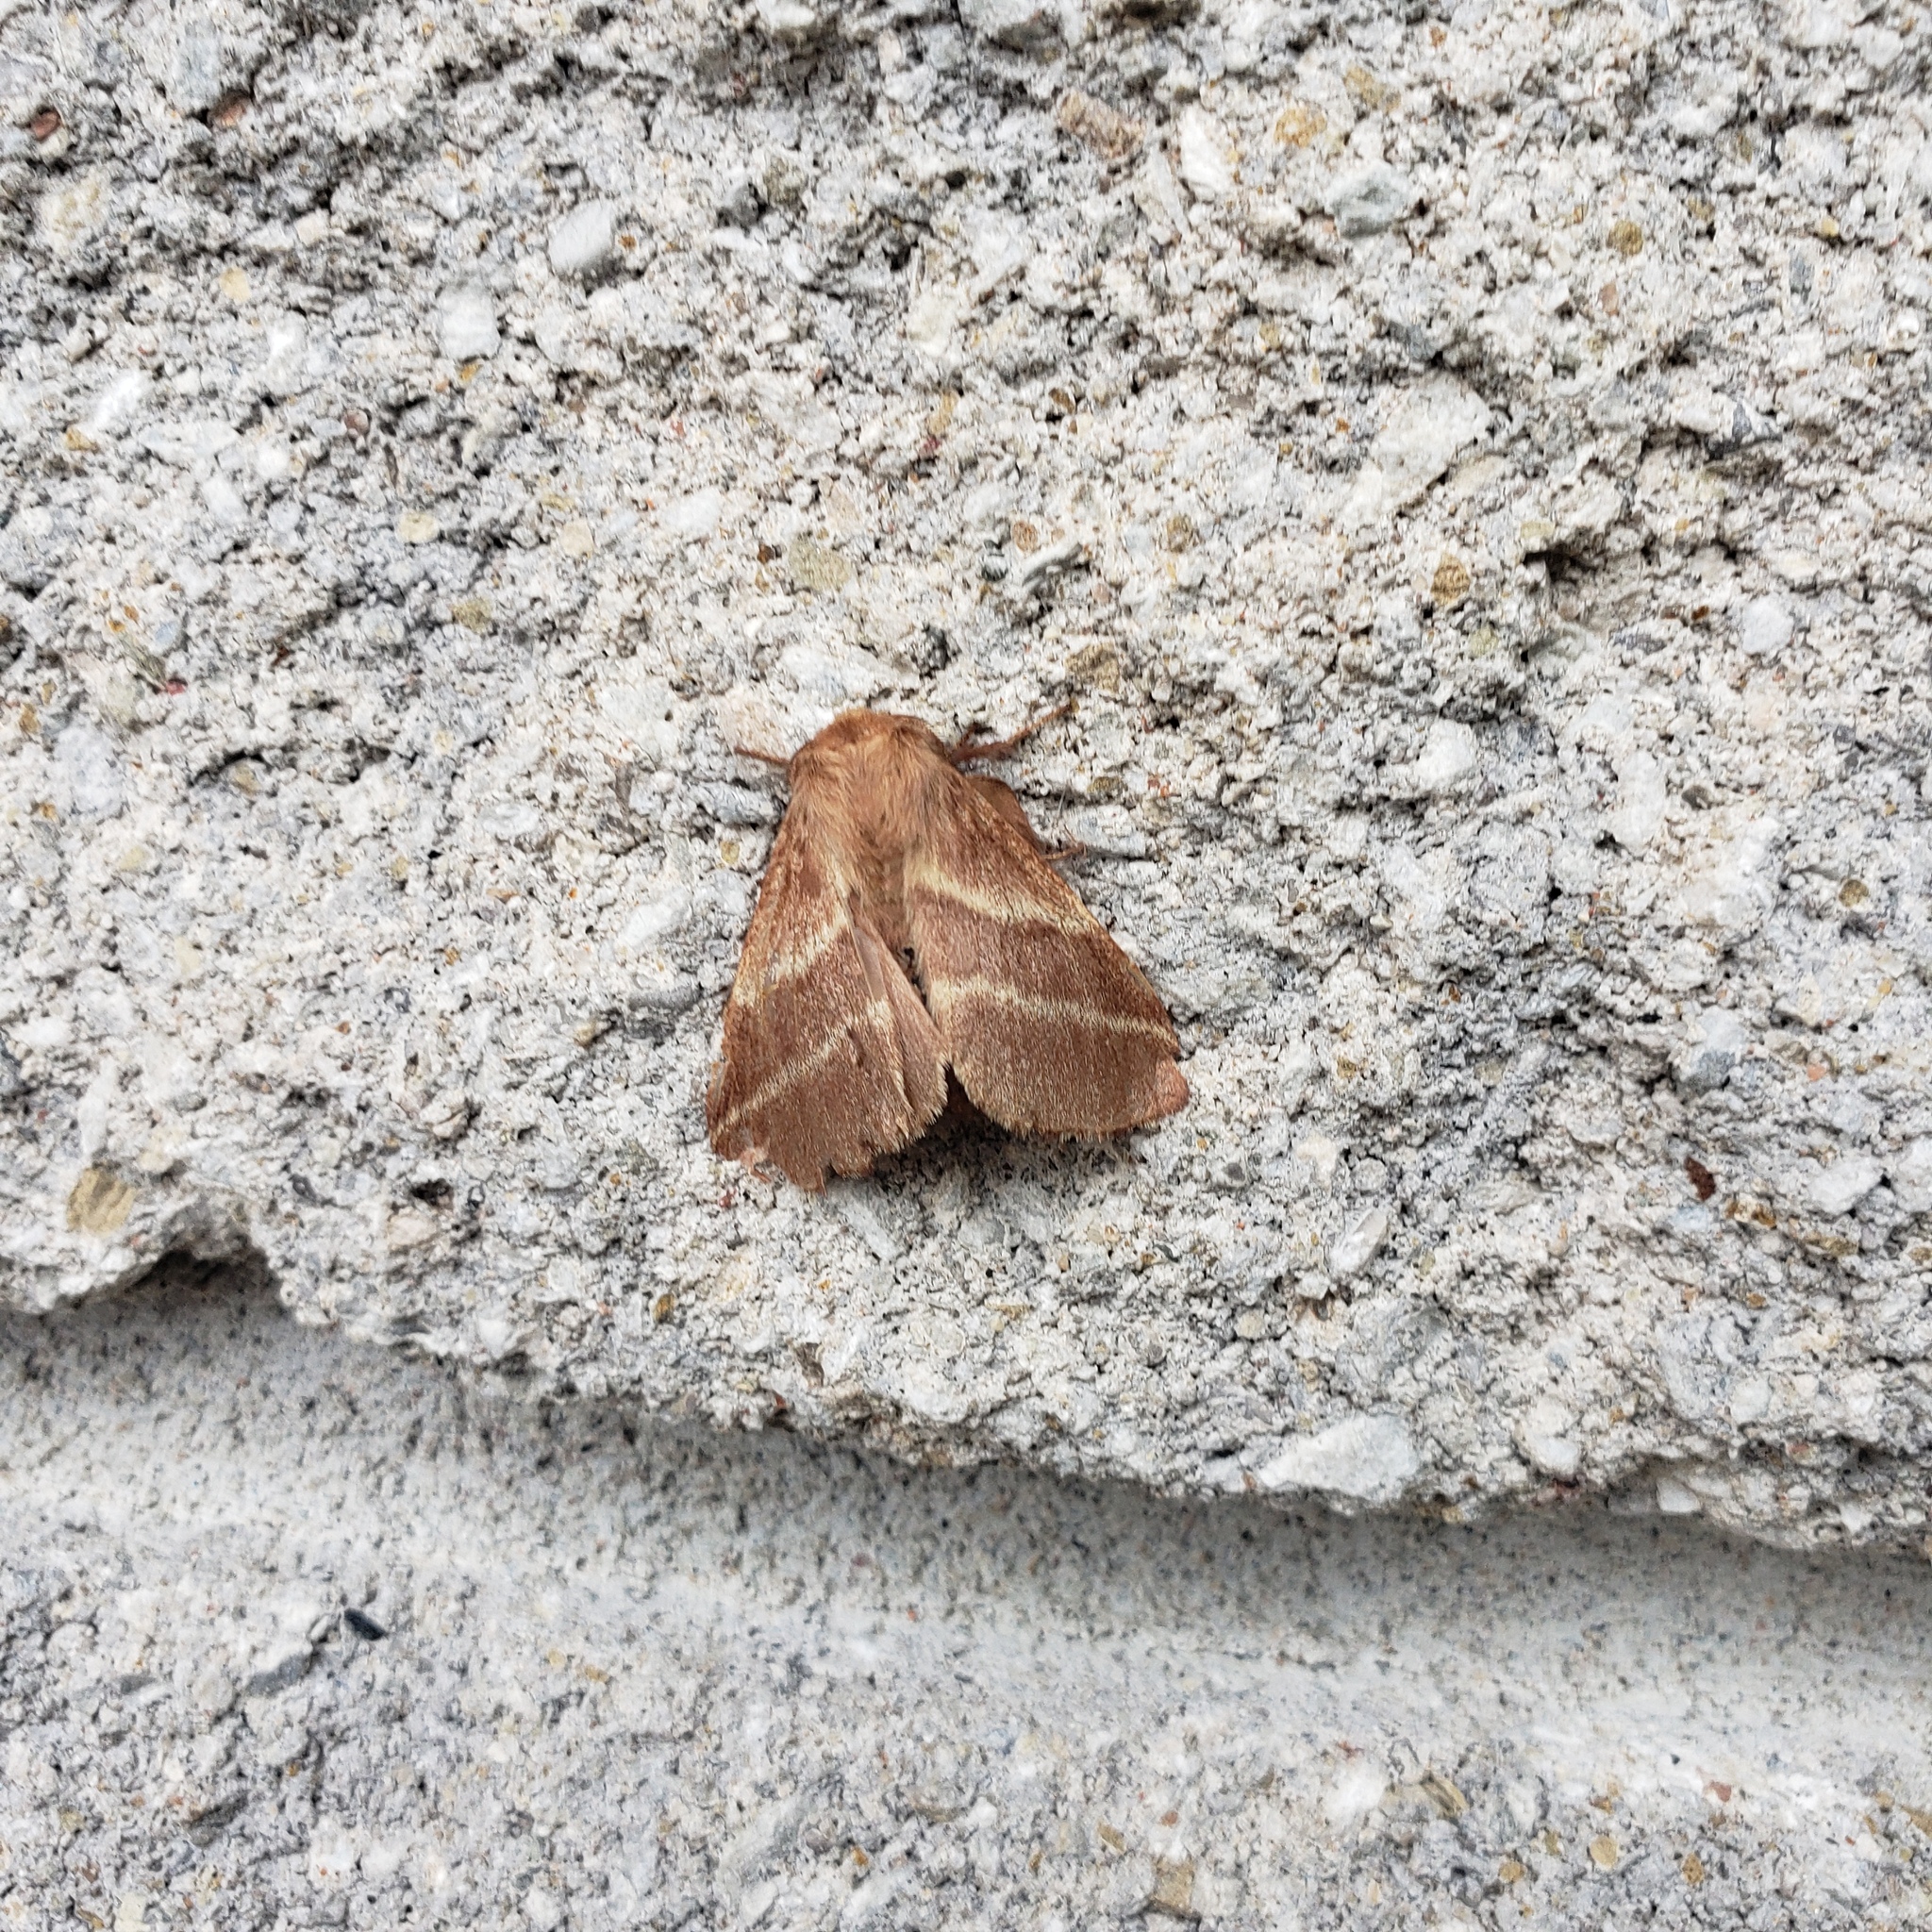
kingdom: Animalia
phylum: Arthropoda
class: Insecta
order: Lepidoptera
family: Lasiocampidae
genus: Malacosoma
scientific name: Malacosoma americana
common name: Eastern tent caterpillar moth
